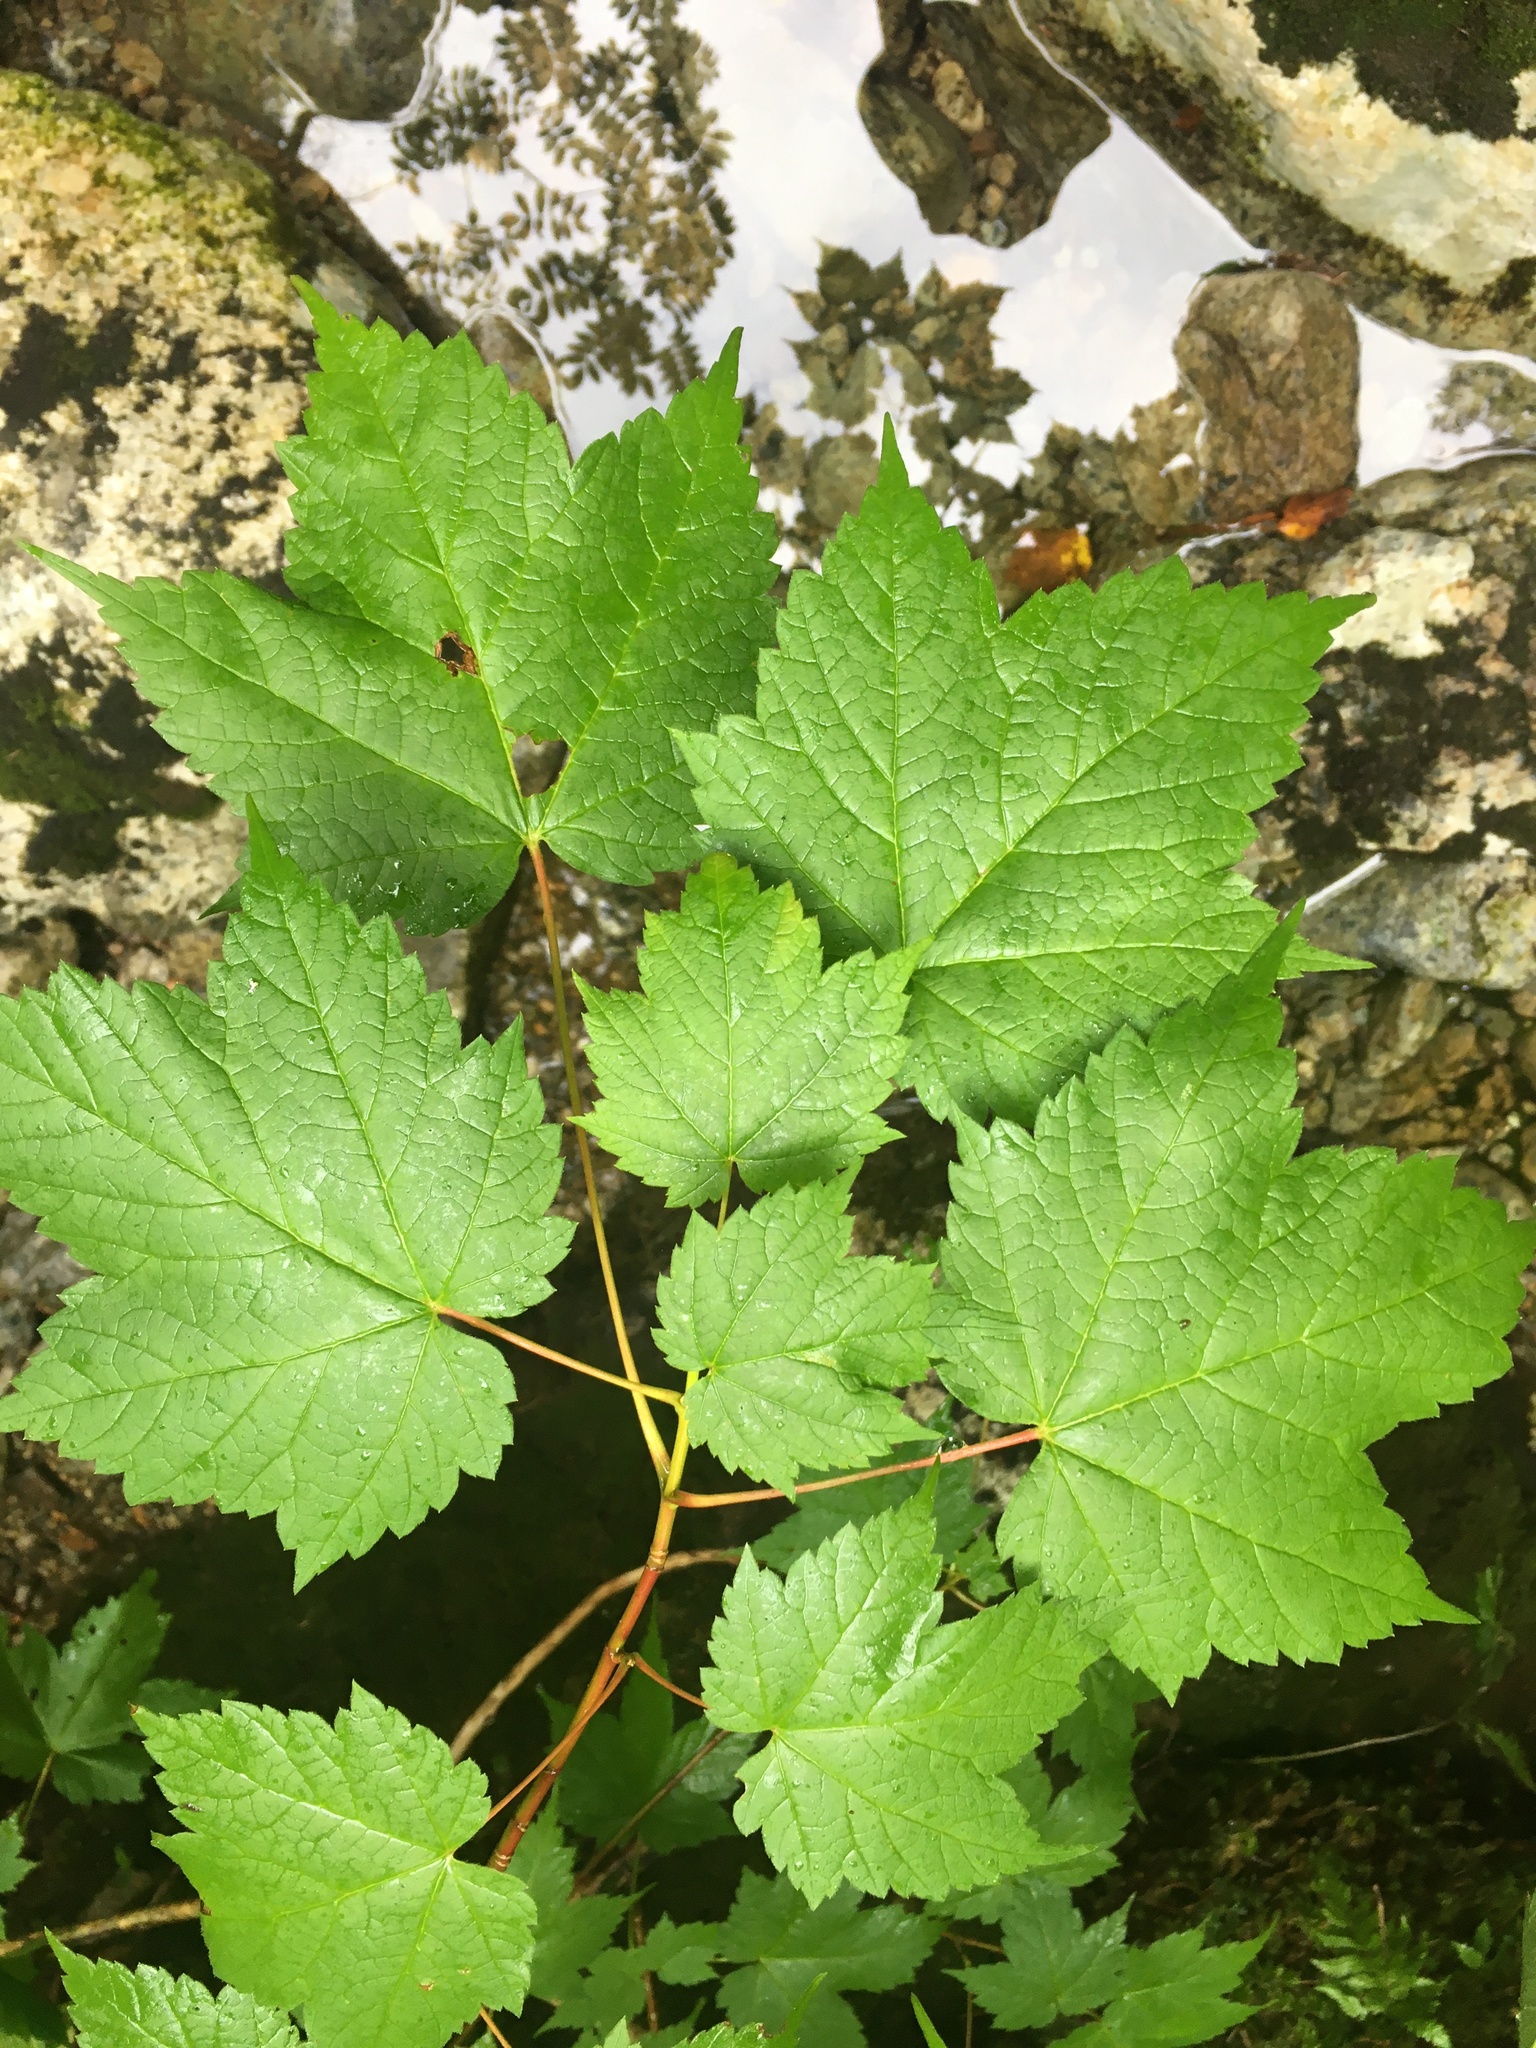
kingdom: Plantae
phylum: Tracheophyta
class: Magnoliopsida
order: Sapindales
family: Sapindaceae
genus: Acer
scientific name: Acer spicatum
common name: Mountain maple
